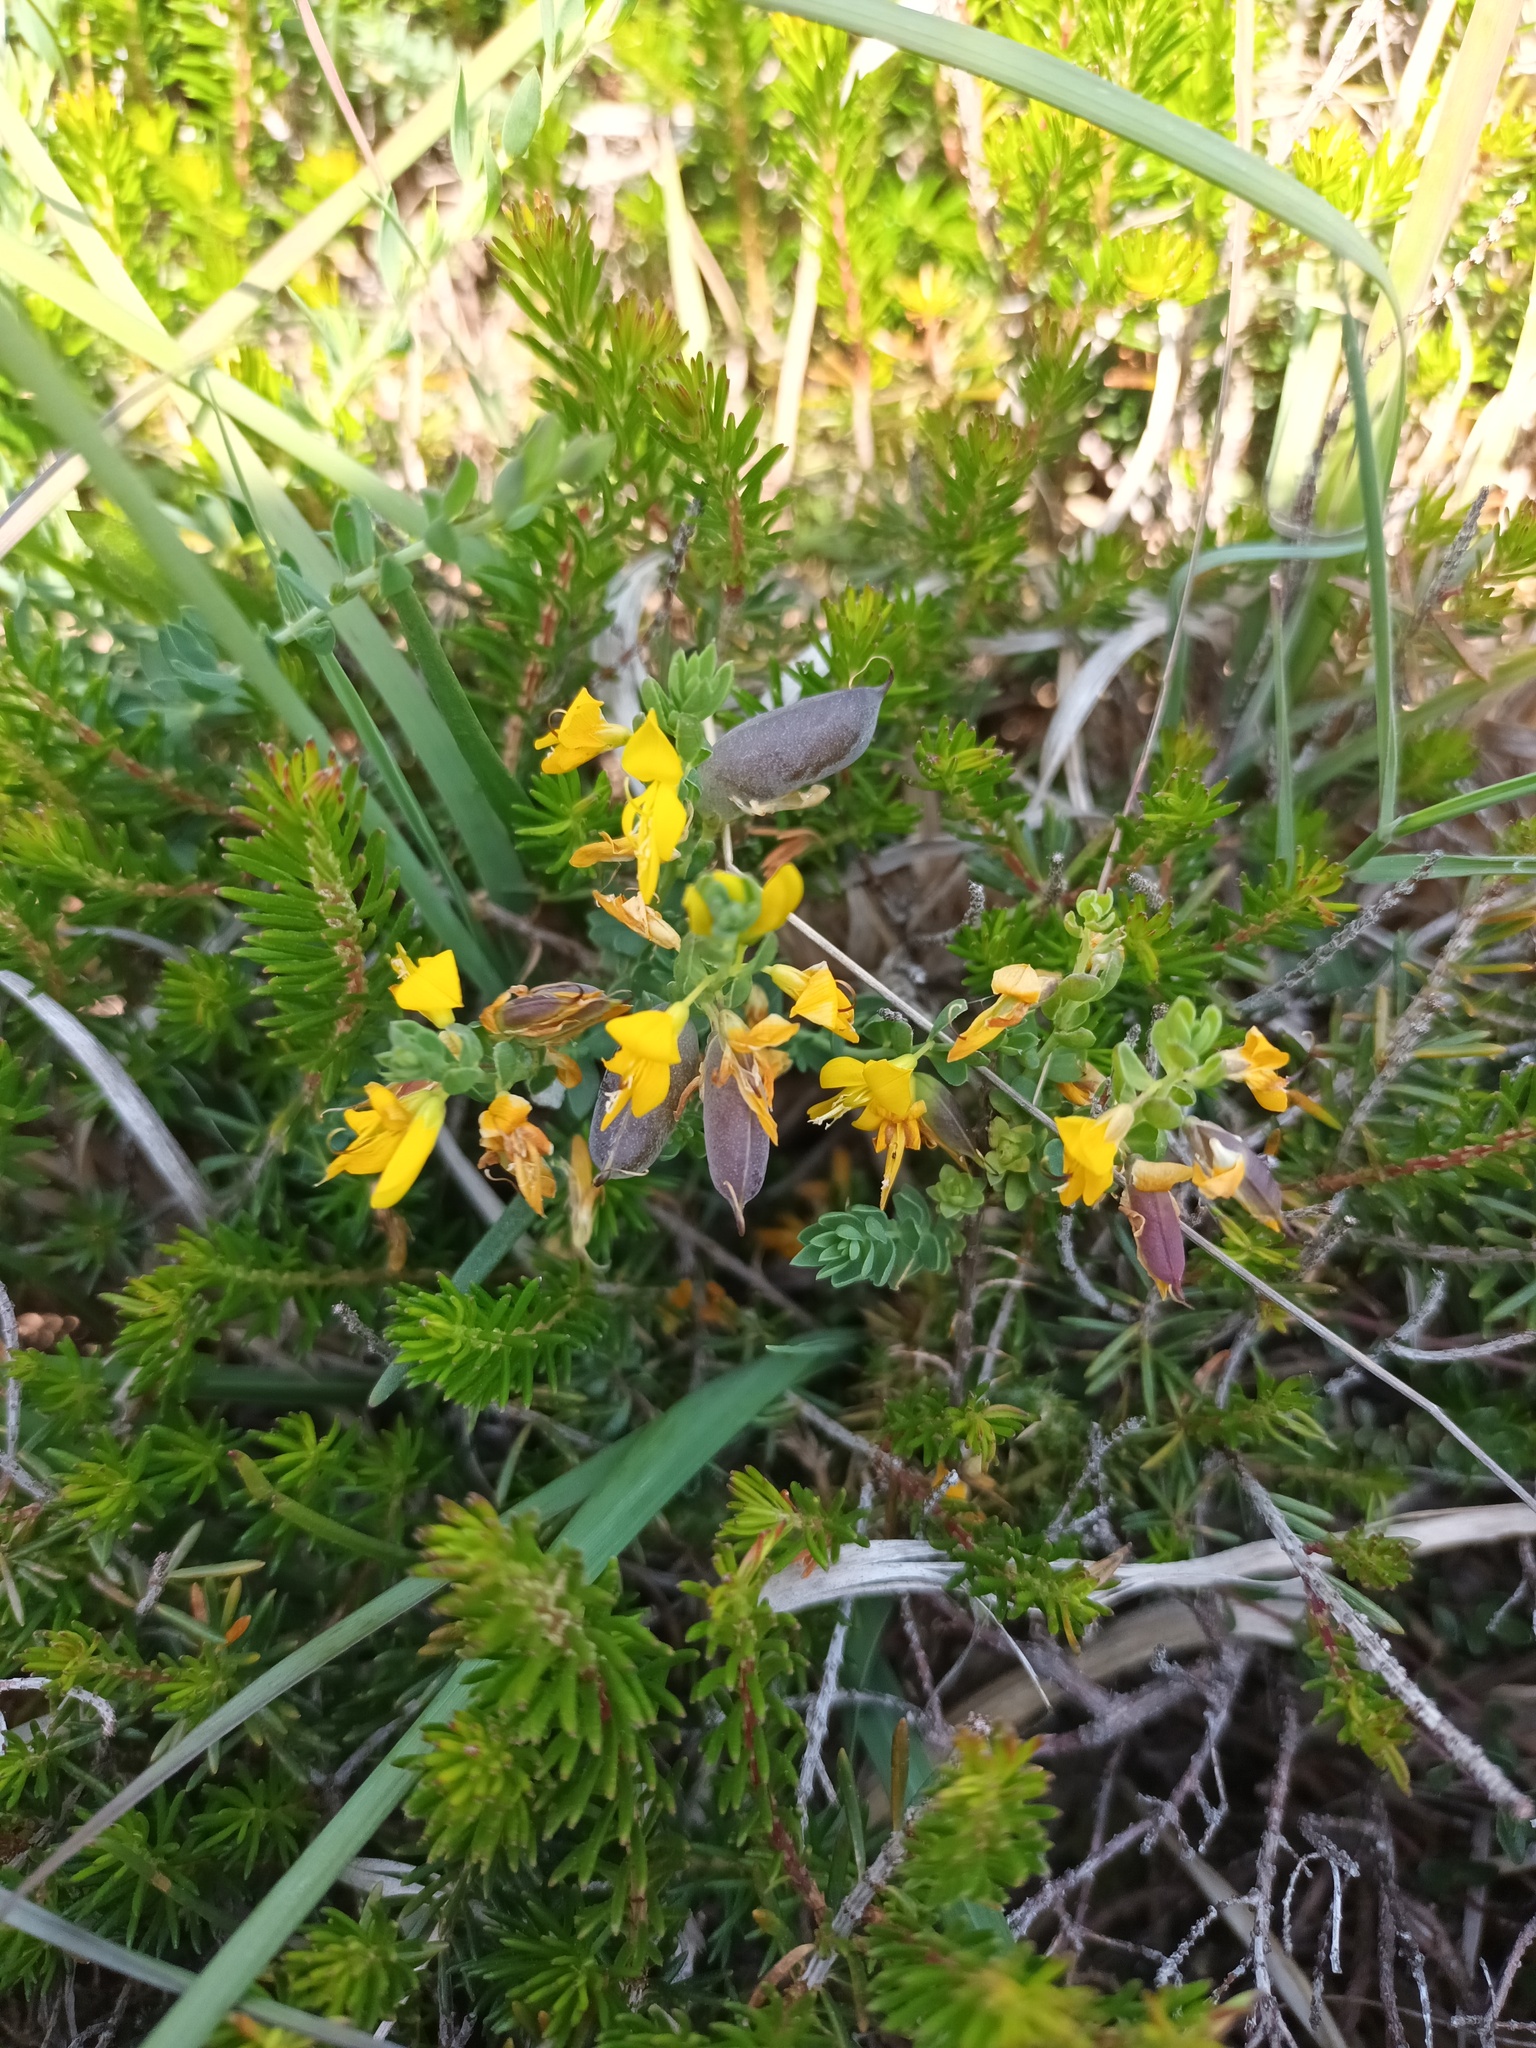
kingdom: Plantae
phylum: Tracheophyta
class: Magnoliopsida
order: Fabales
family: Fabaceae
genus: Genista
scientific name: Genista anglica
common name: Petty whin
